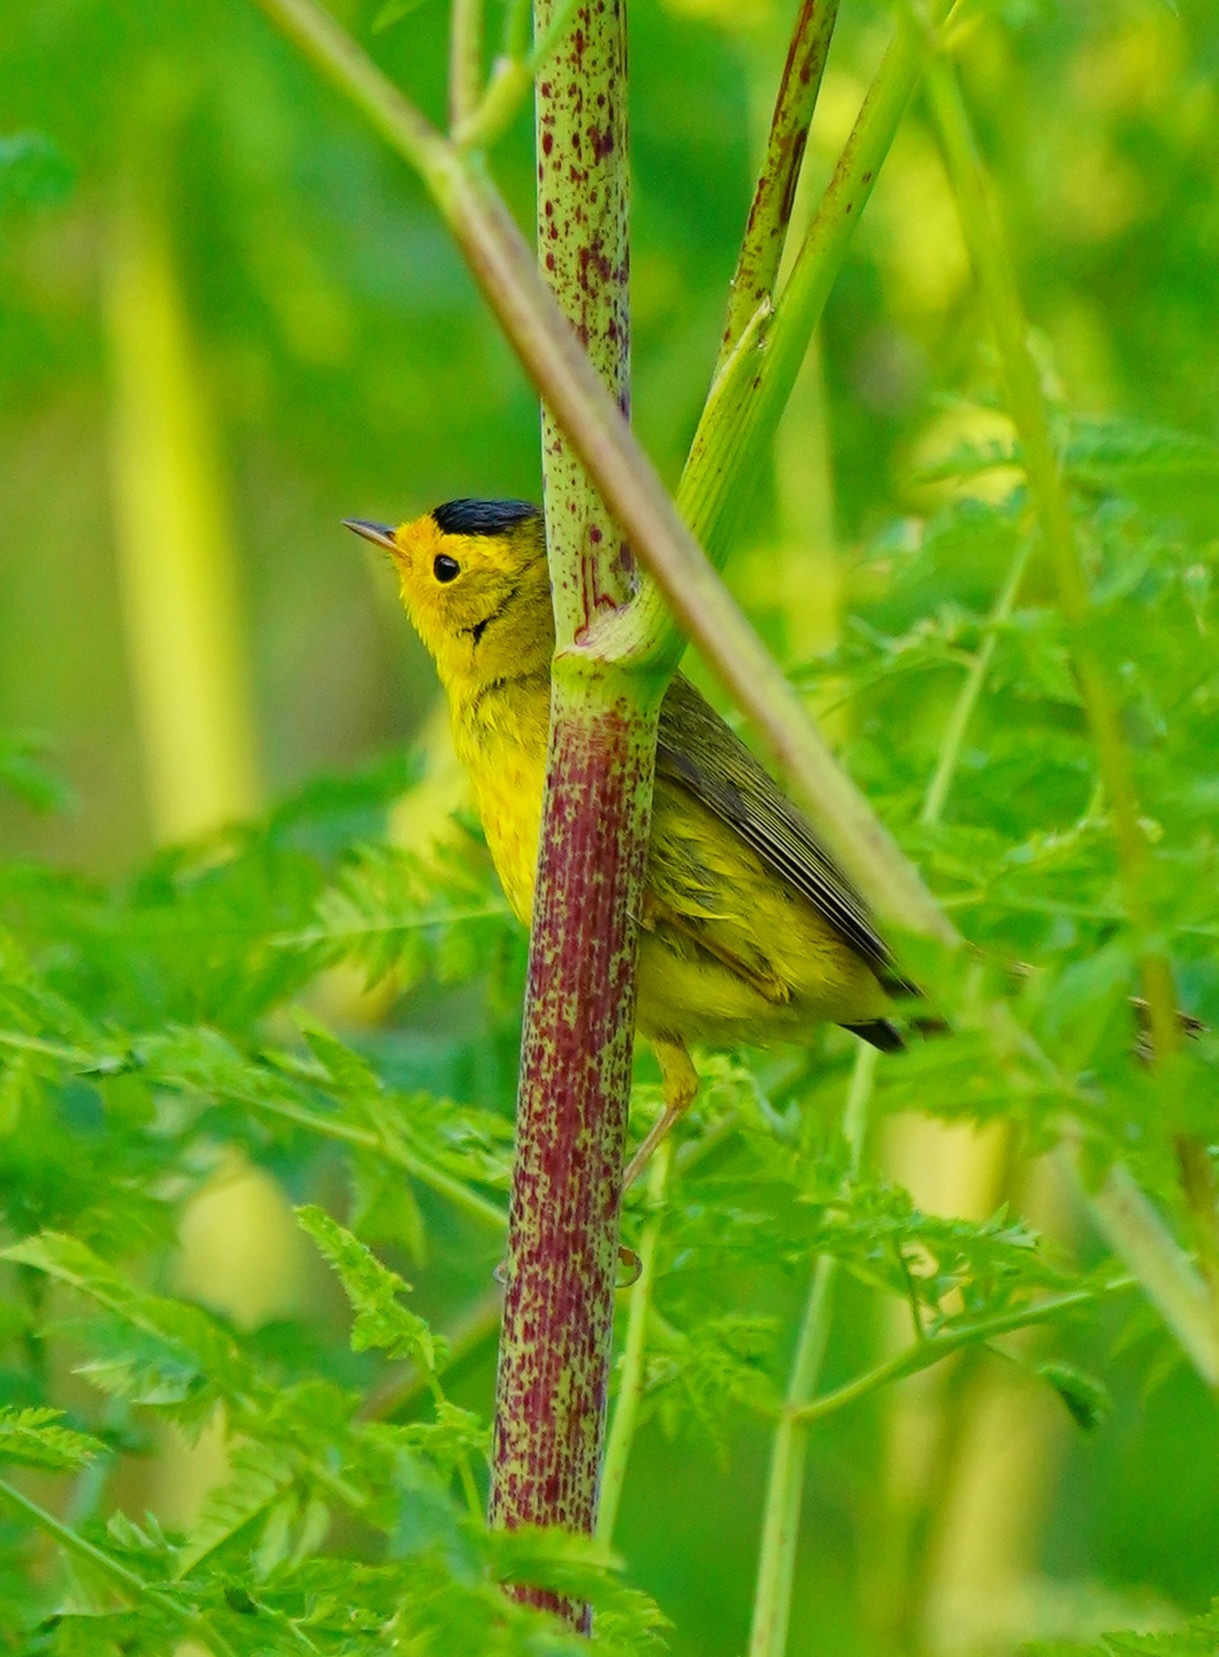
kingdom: Animalia
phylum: Chordata
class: Aves
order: Passeriformes
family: Parulidae
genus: Cardellina
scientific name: Cardellina pusilla
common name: Wilson's warbler
